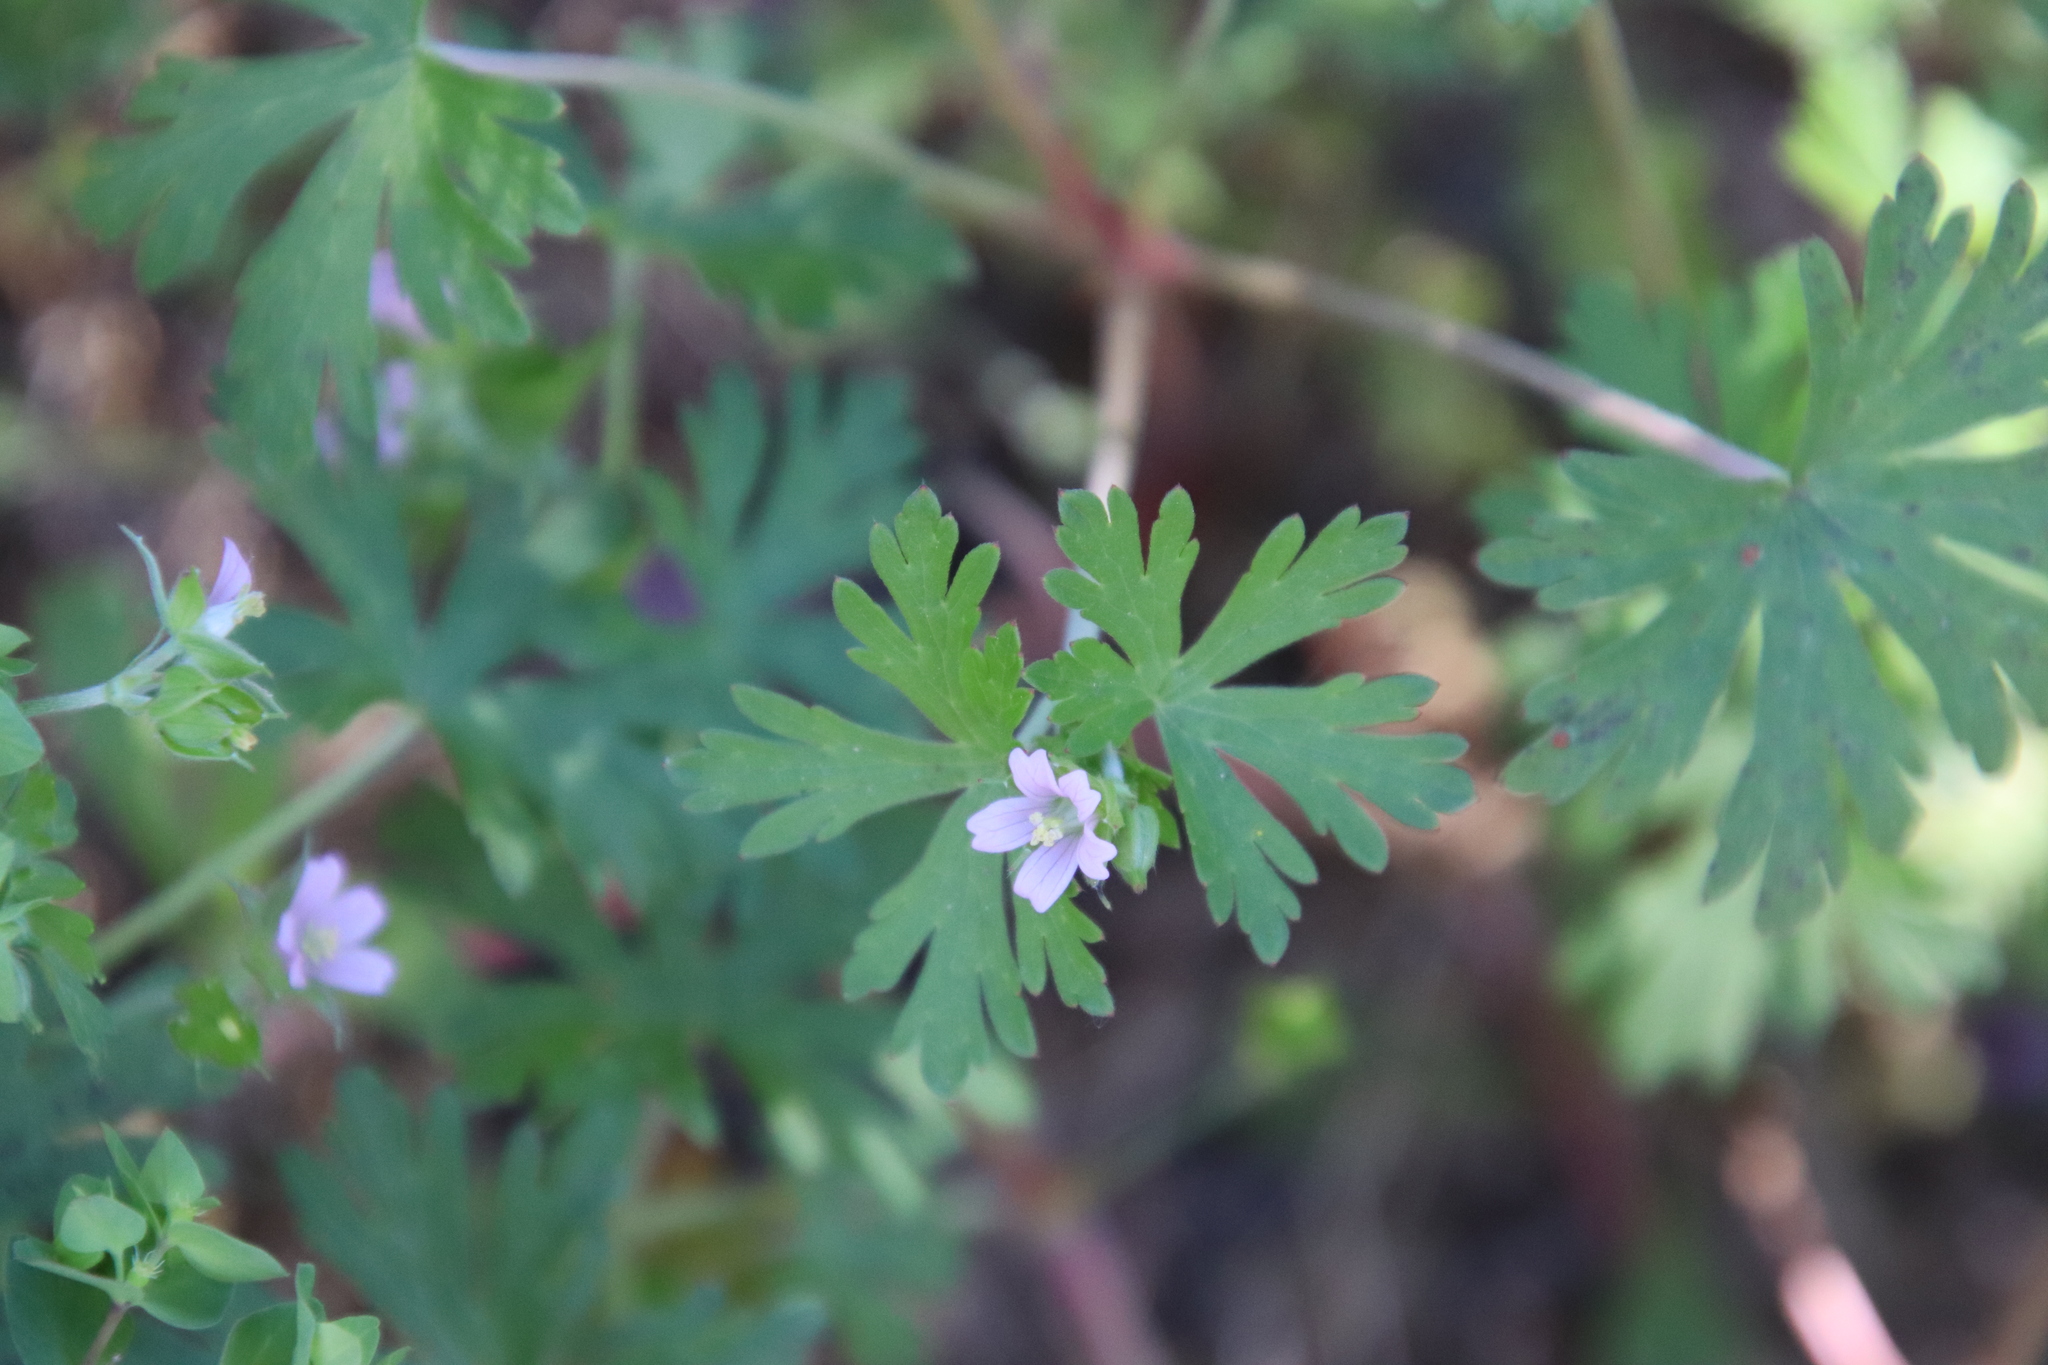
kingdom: Plantae
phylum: Tracheophyta
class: Magnoliopsida
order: Geraniales
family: Geraniaceae
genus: Geranium
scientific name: Geranium carolinianum
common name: Carolina crane's-bill
